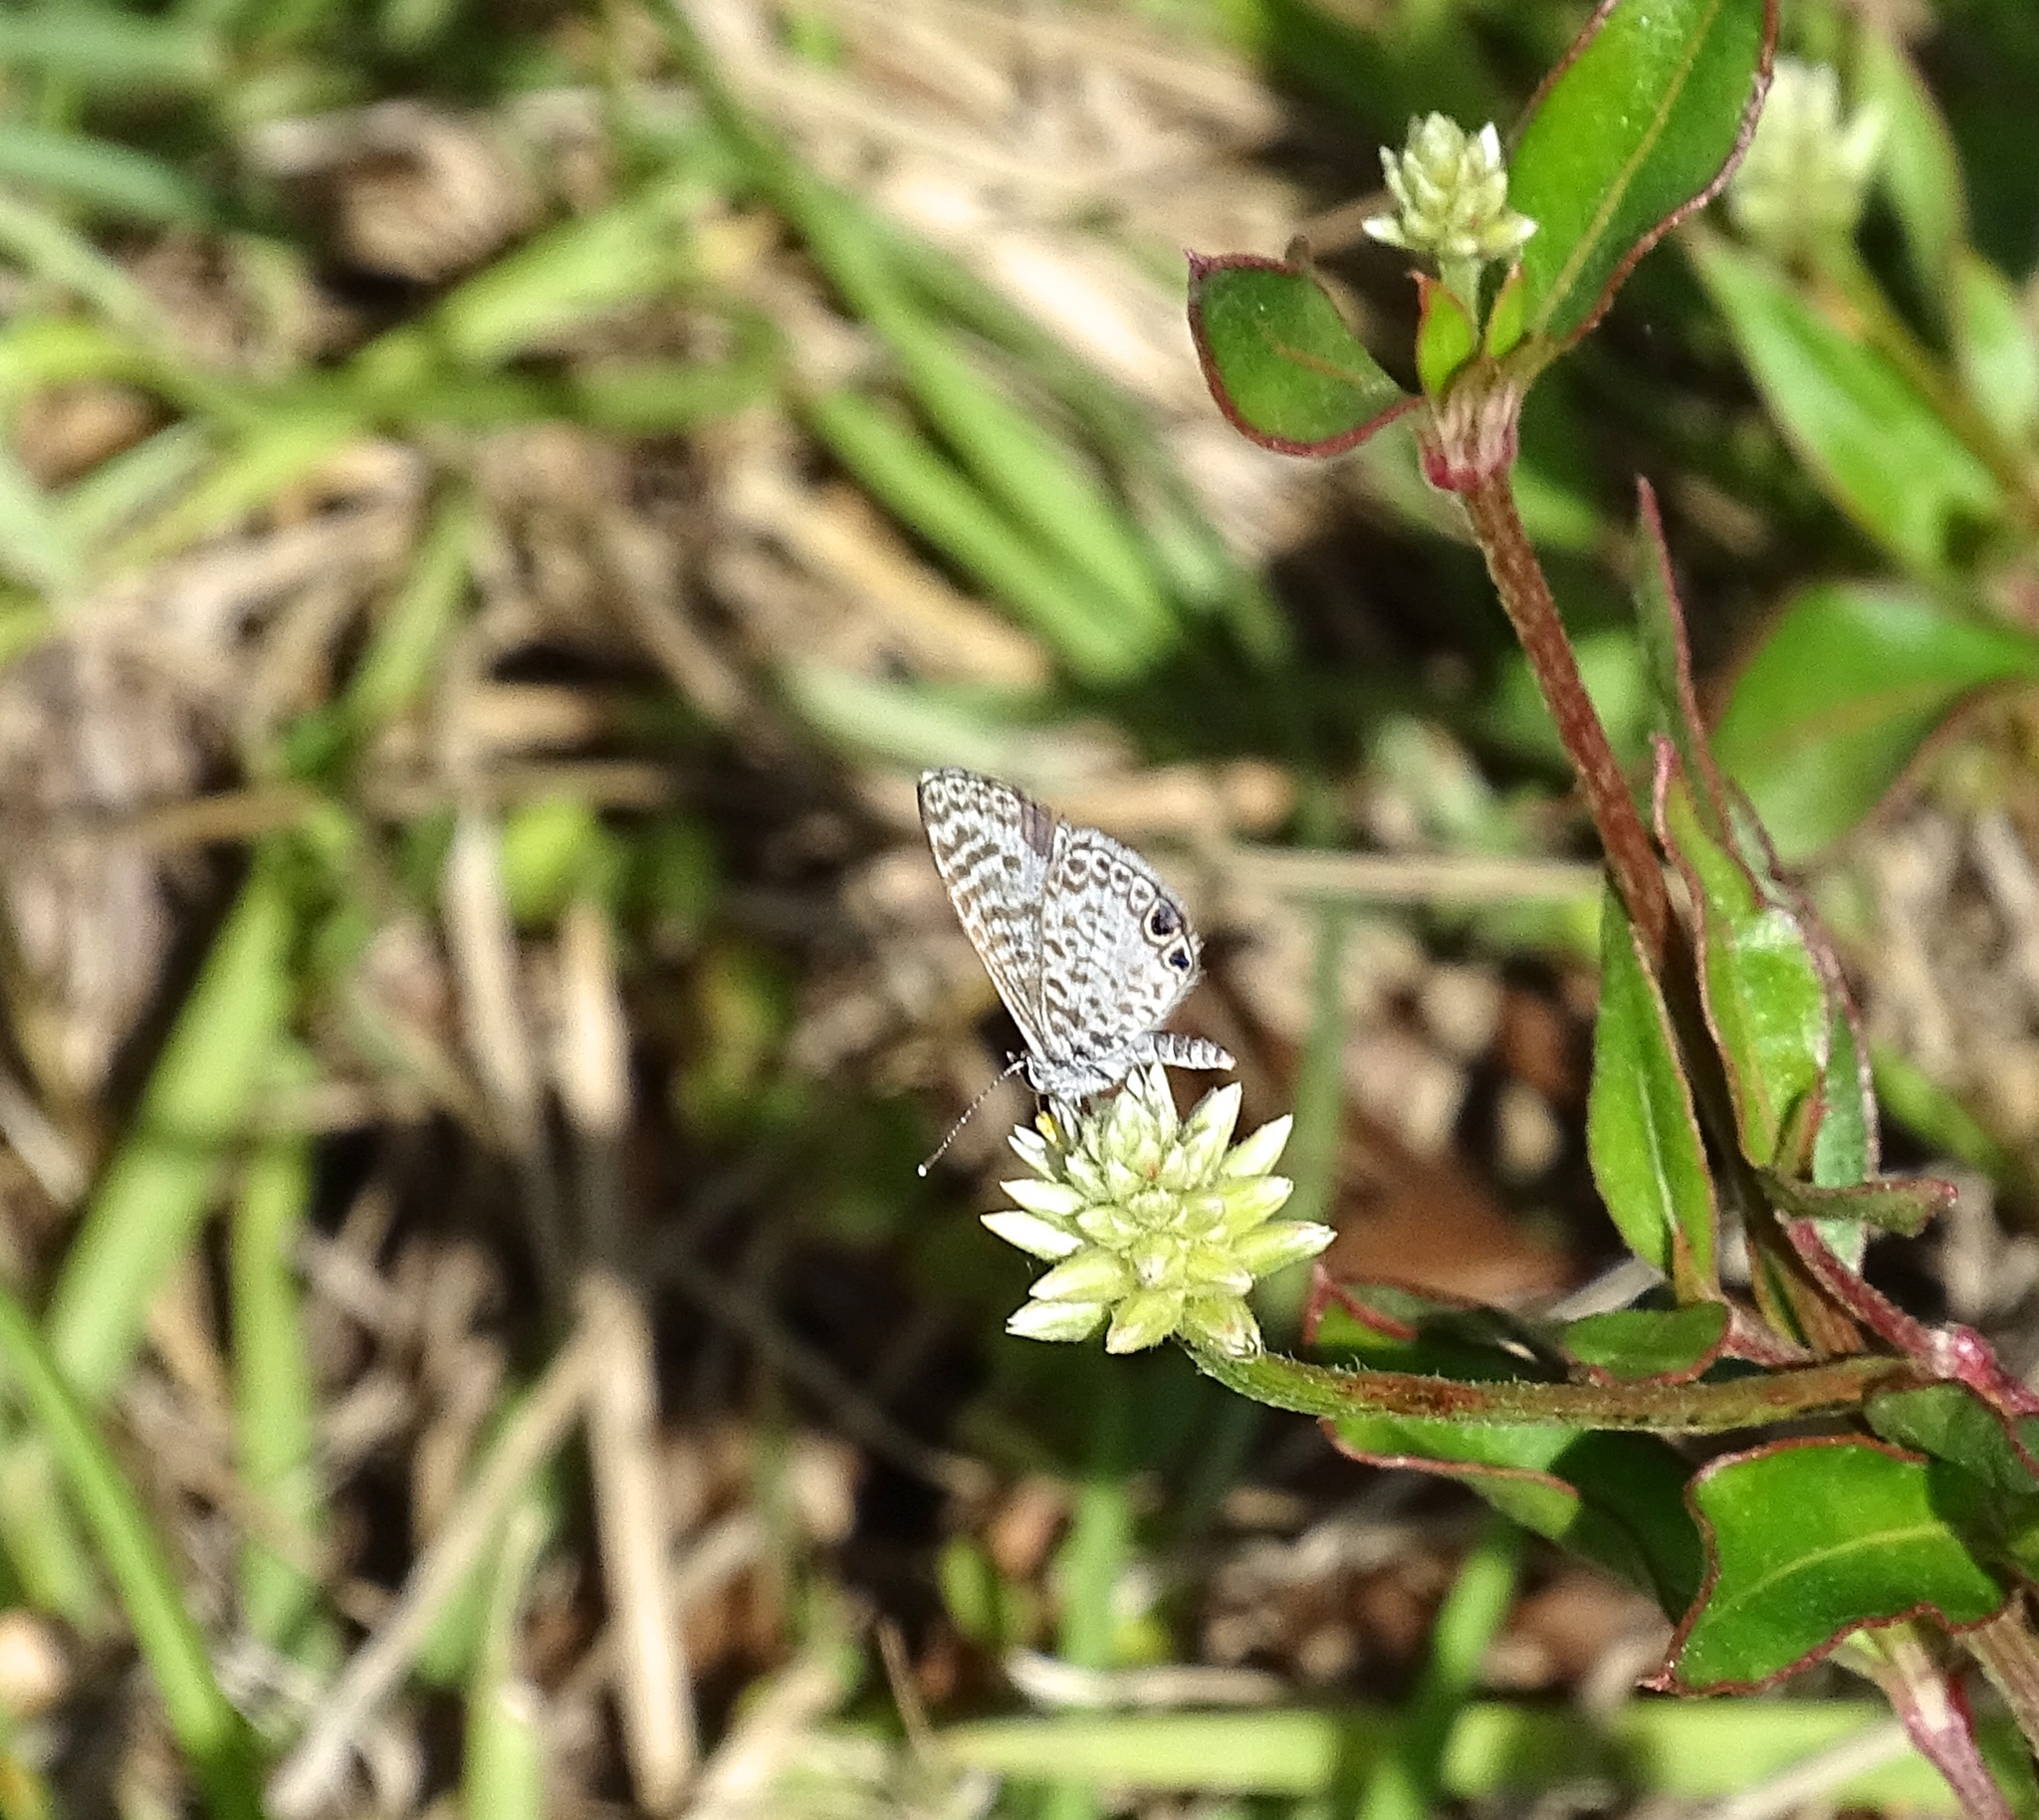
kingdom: Animalia
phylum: Arthropoda
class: Insecta
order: Lepidoptera
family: Lycaenidae
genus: Leptotes
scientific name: Leptotes cassius
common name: Cassius blue
